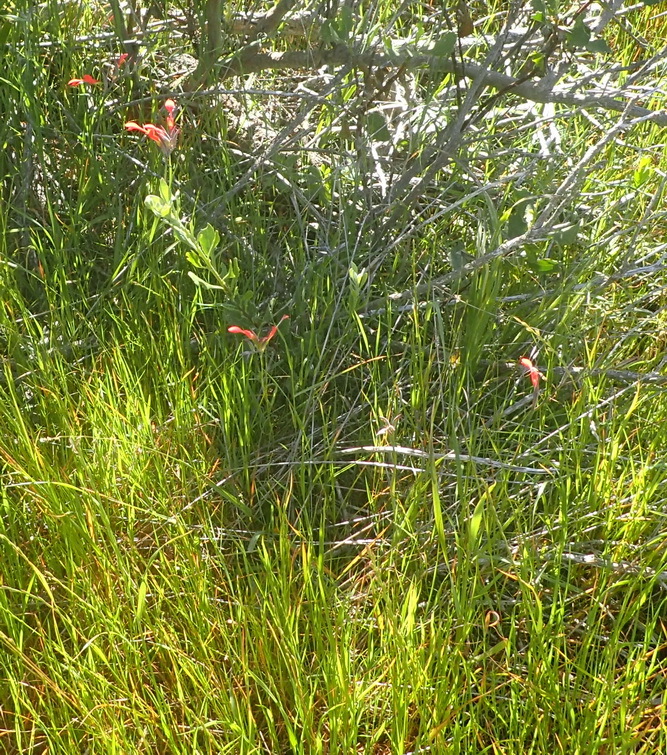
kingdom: Plantae
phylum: Tracheophyta
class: Liliopsida
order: Asparagales
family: Iridaceae
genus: Gladiolus
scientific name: Gladiolus cunonius
